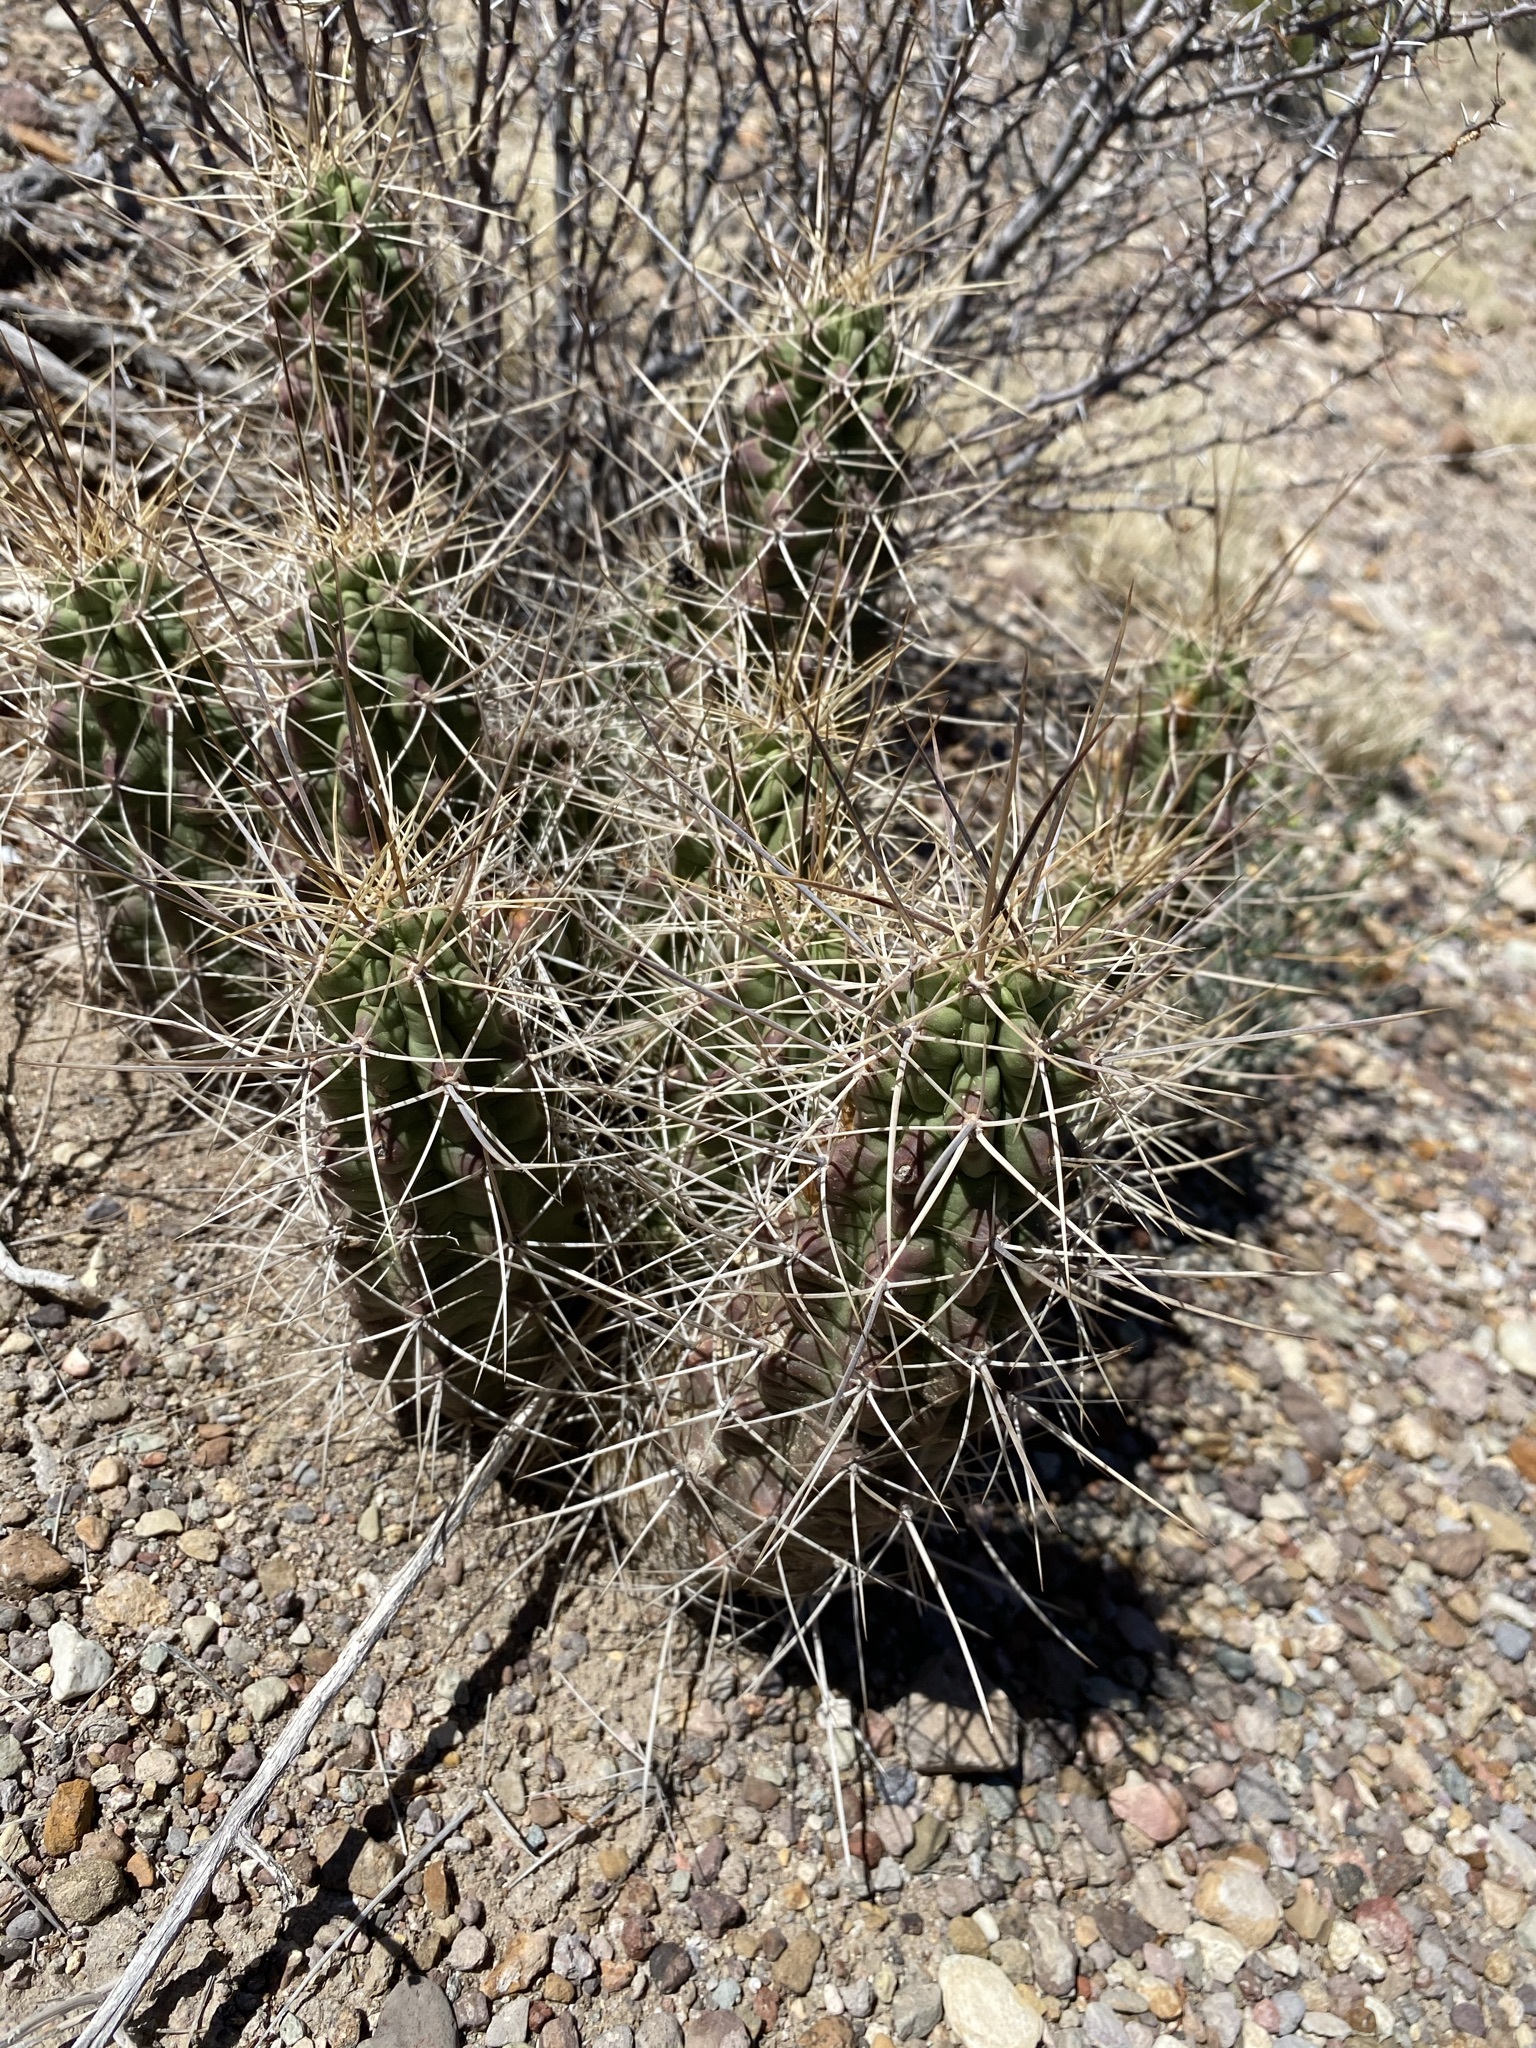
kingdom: Plantae
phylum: Tracheophyta
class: Magnoliopsida
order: Caryophyllales
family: Cactaceae
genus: Echinocereus
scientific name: Echinocereus enneacanthus
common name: Pitaya
